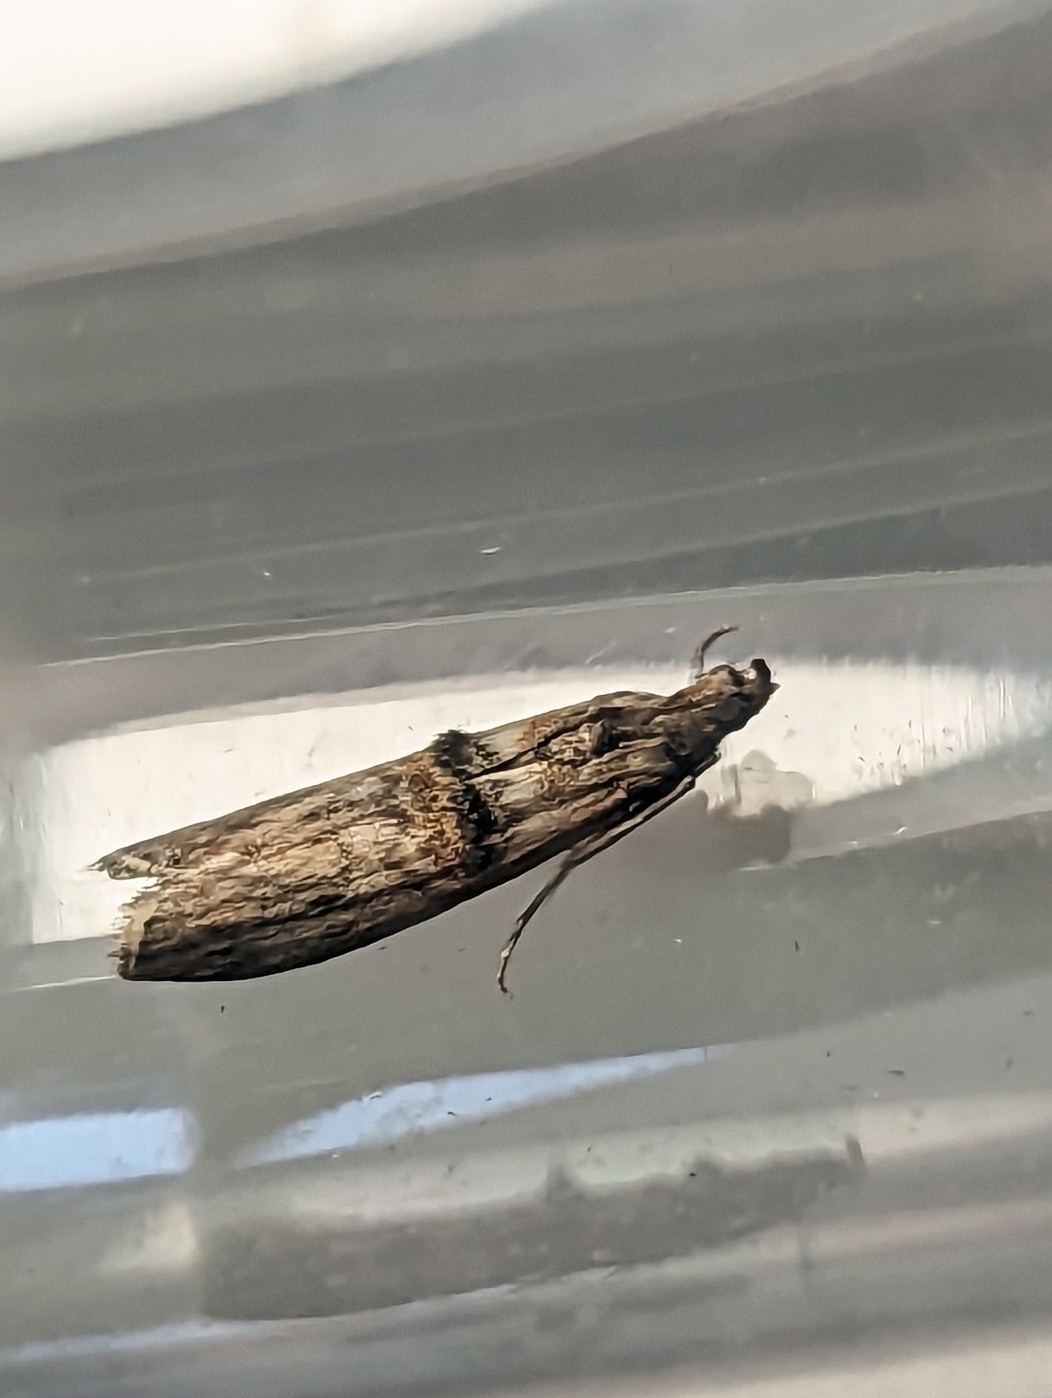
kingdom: Animalia
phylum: Arthropoda
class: Insecta
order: Lepidoptera
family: Pyralidae
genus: Nephopterix
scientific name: Nephopterix angustella
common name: Spindle knot-horn
